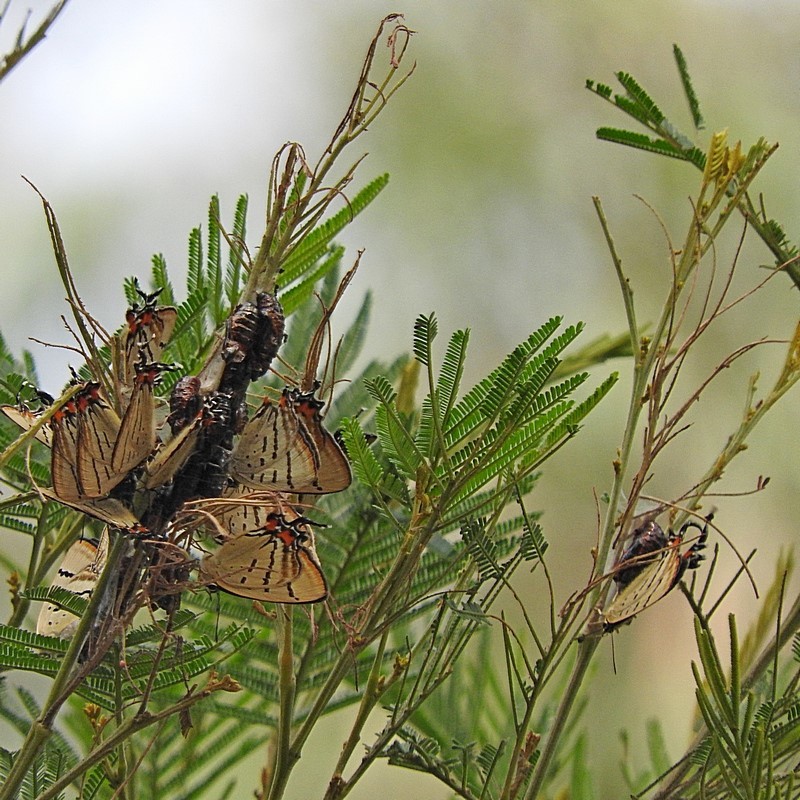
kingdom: Animalia
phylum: Arthropoda
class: Insecta
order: Lepidoptera
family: Lycaenidae
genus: Jalmenus
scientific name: Jalmenus evagoras
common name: Common imperial blue
